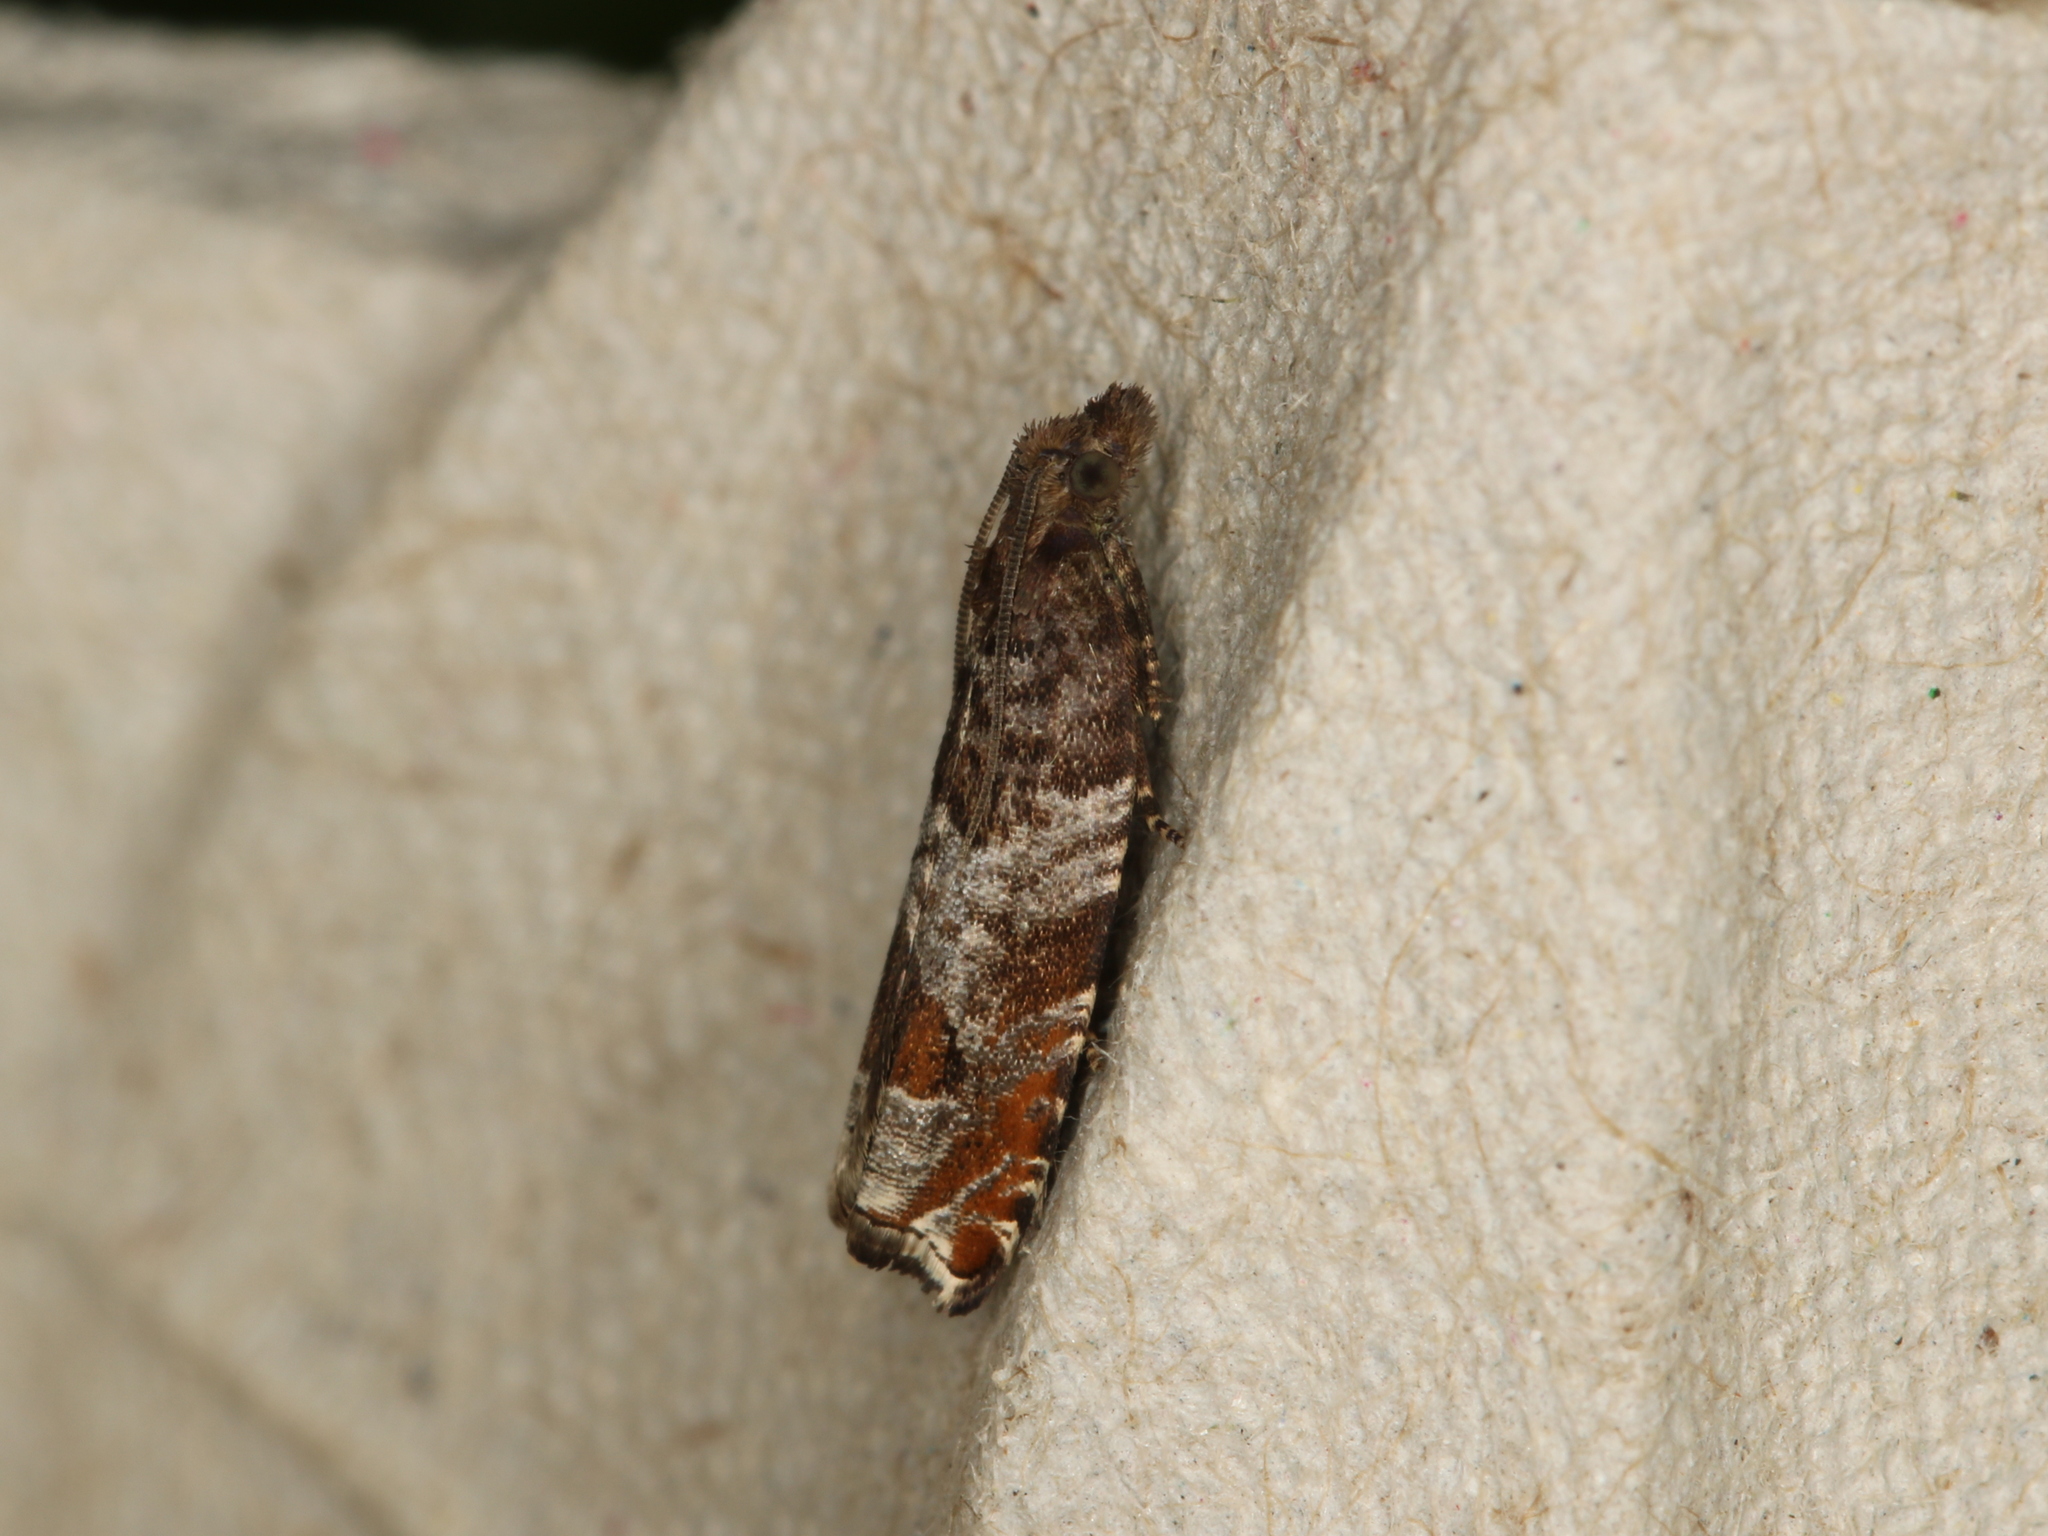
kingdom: Animalia
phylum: Arthropoda
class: Insecta
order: Lepidoptera
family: Tortricidae
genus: Ancylis
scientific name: Ancylis achatana
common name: Triangle-marked roller
